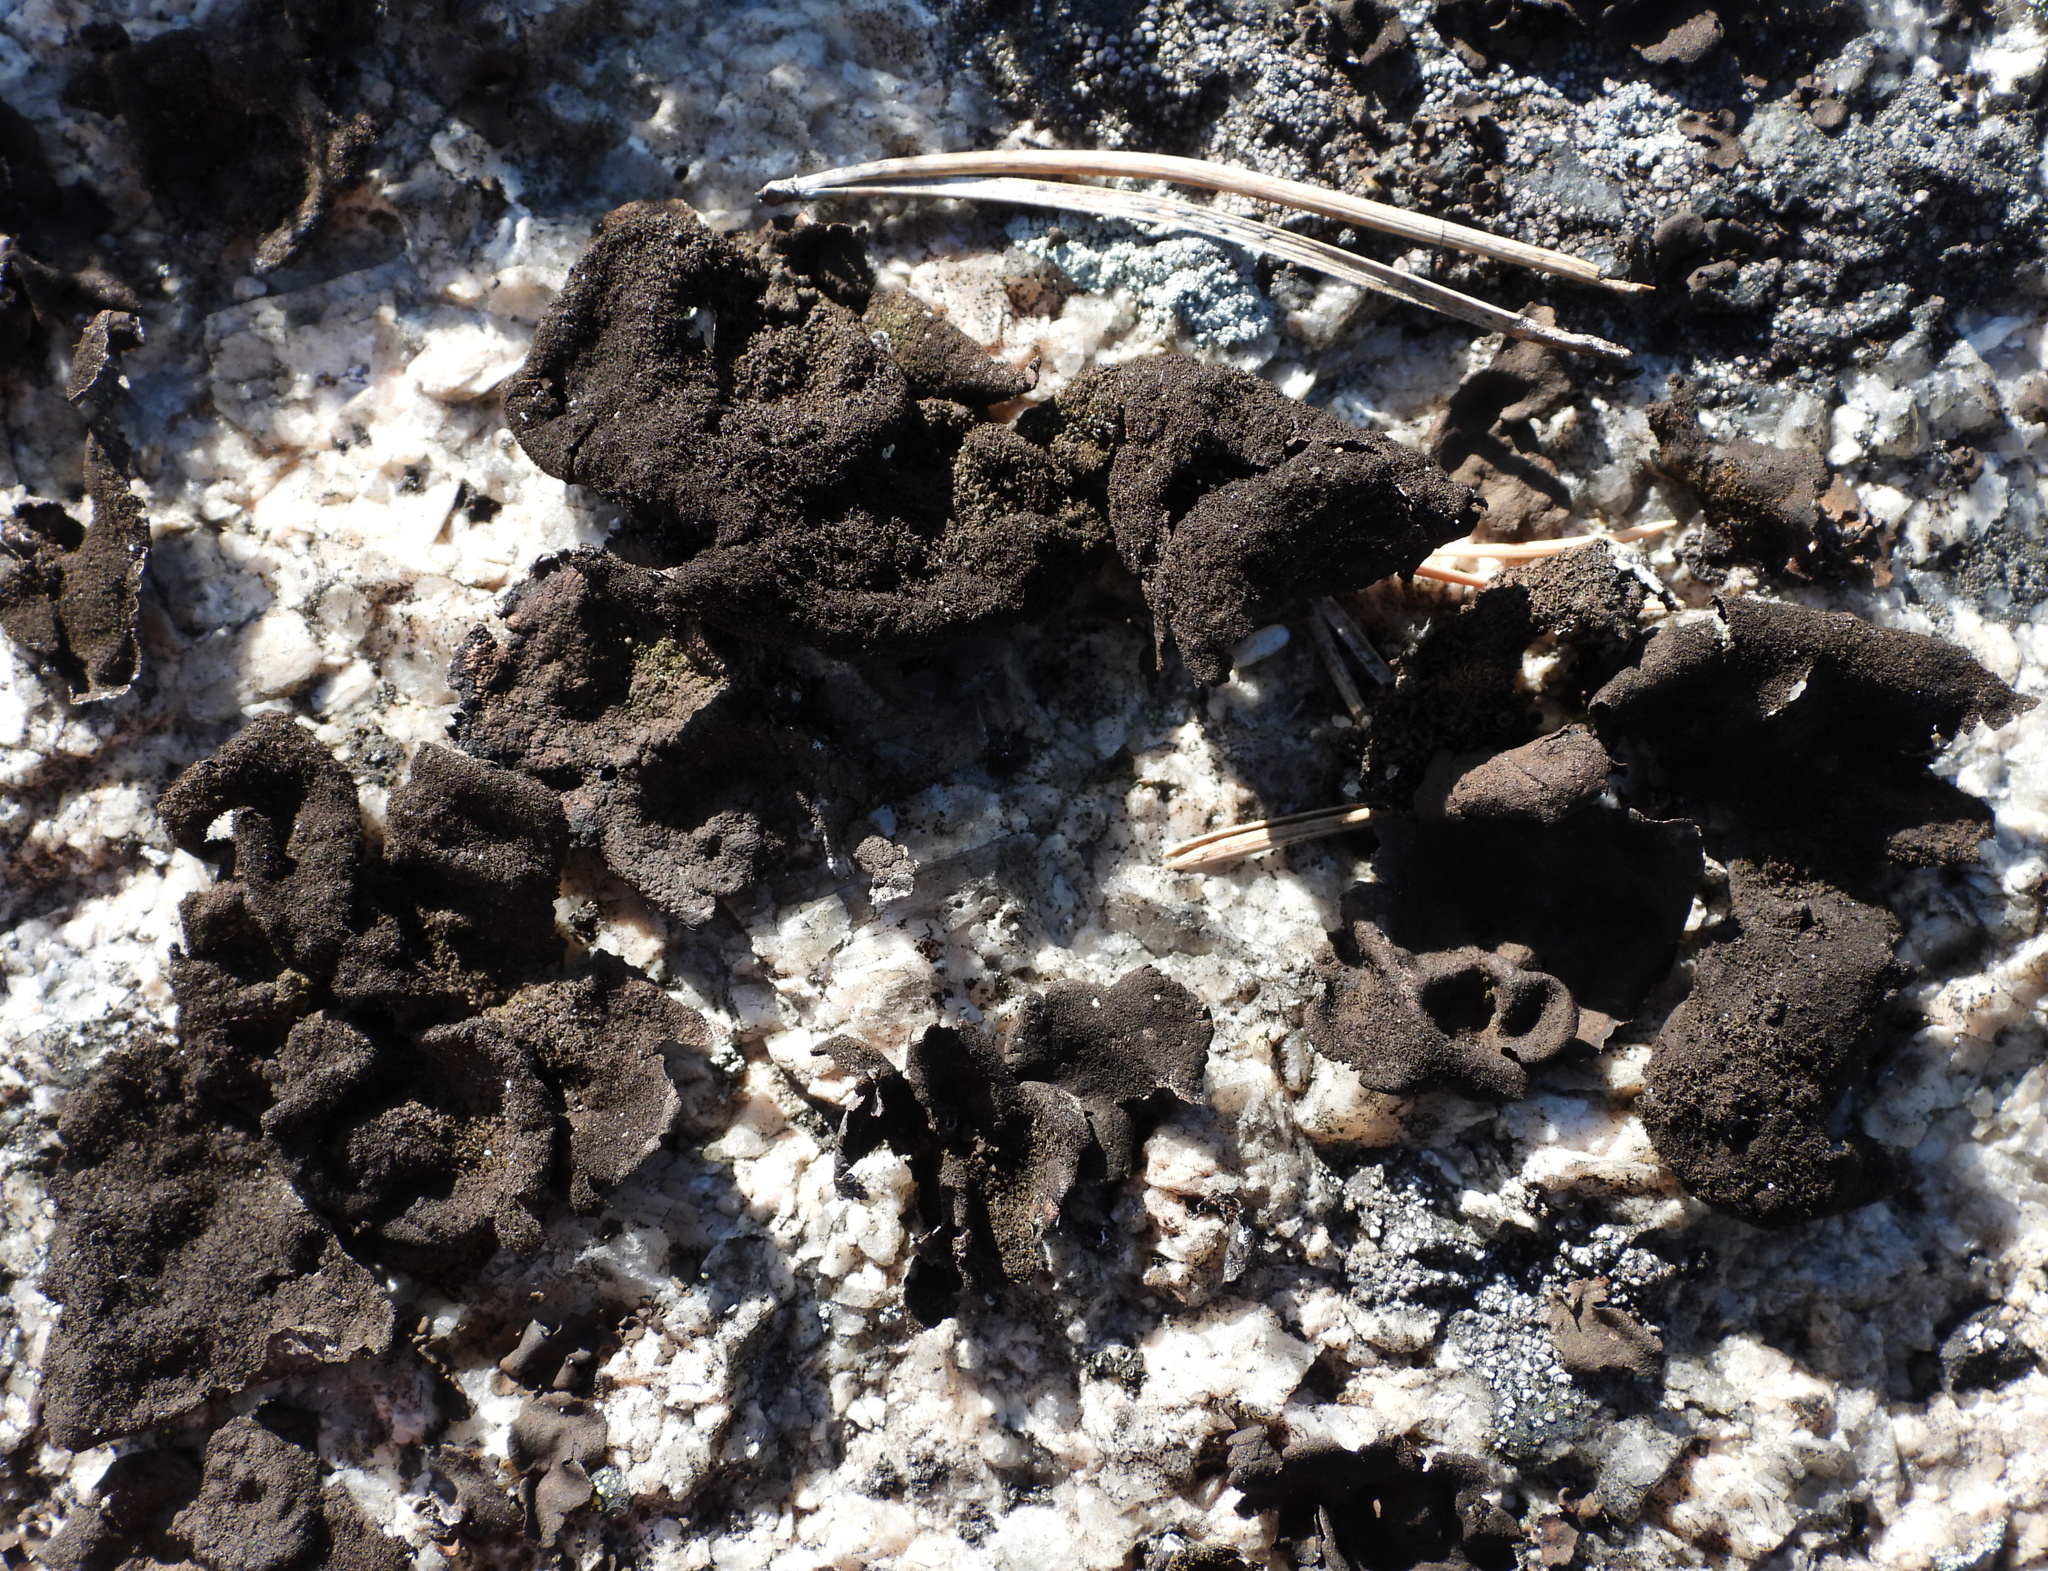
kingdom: Fungi
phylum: Ascomycota
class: Lecanoromycetes
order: Umbilicariales
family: Umbilicariaceae
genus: Umbilicaria
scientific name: Umbilicaria deusta
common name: Peppered rock tripe
